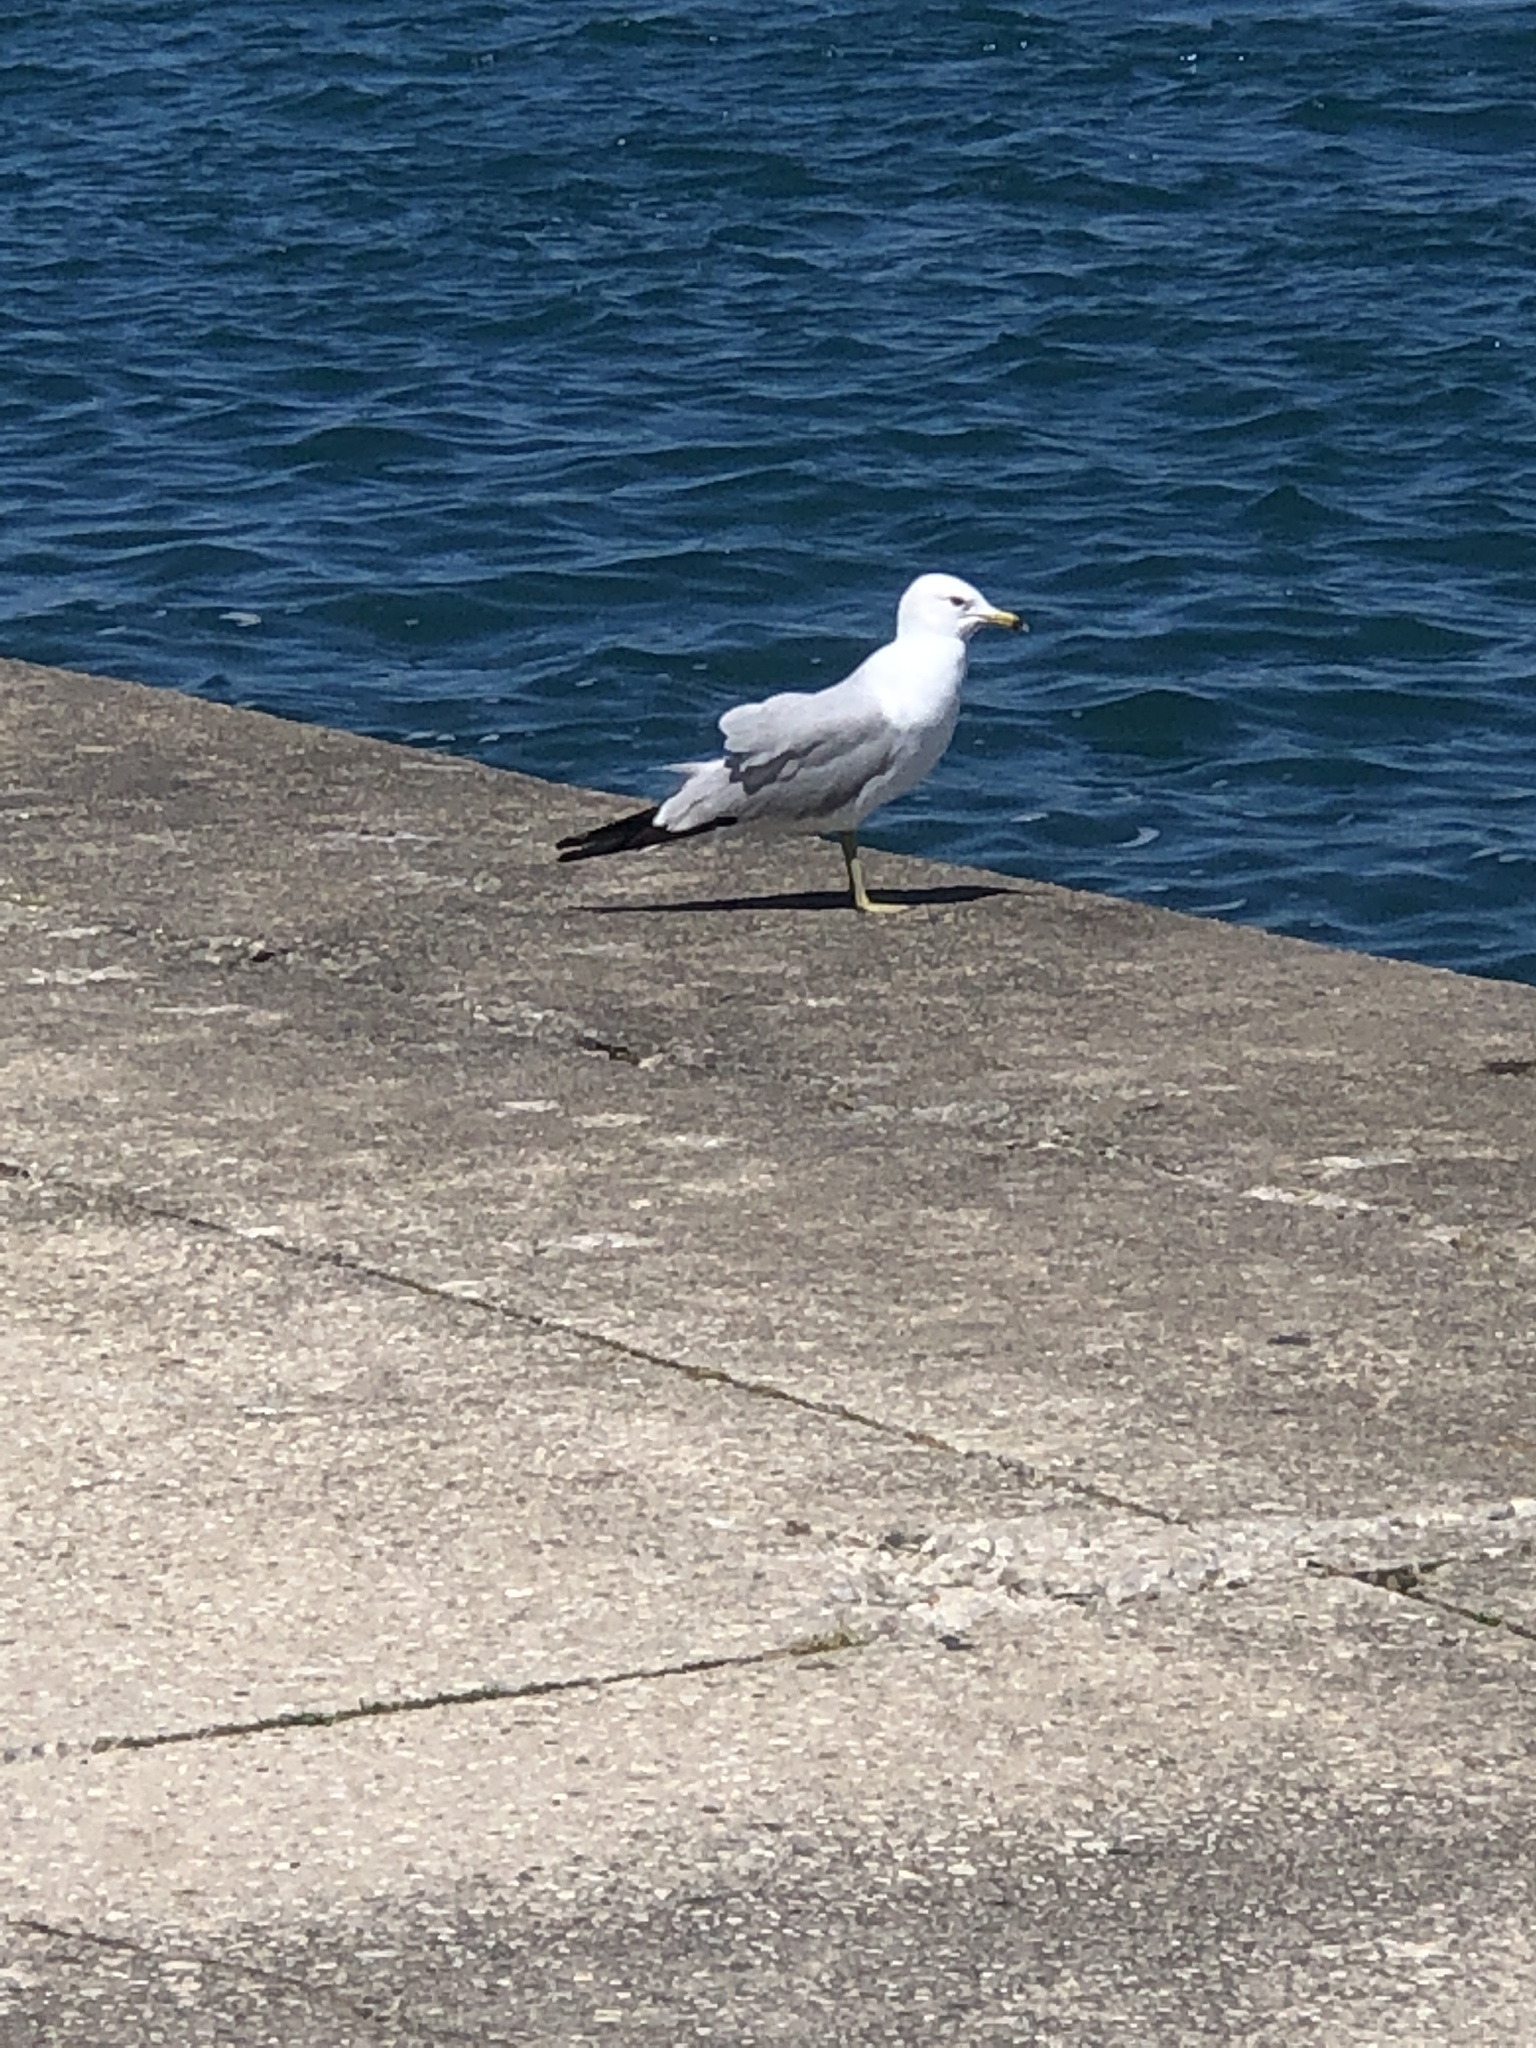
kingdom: Animalia
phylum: Chordata
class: Aves
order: Charadriiformes
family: Laridae
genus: Larus
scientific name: Larus delawarensis
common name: Ring-billed gull
